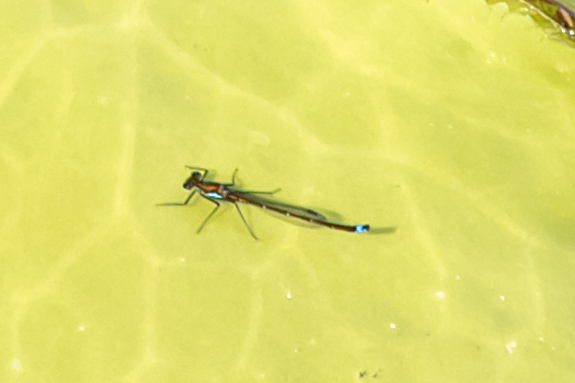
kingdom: Animalia
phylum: Arthropoda
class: Insecta
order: Odonata
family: Coenagrionidae
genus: Austrocnemis
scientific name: Austrocnemis splendida
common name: Splendid longlegs
